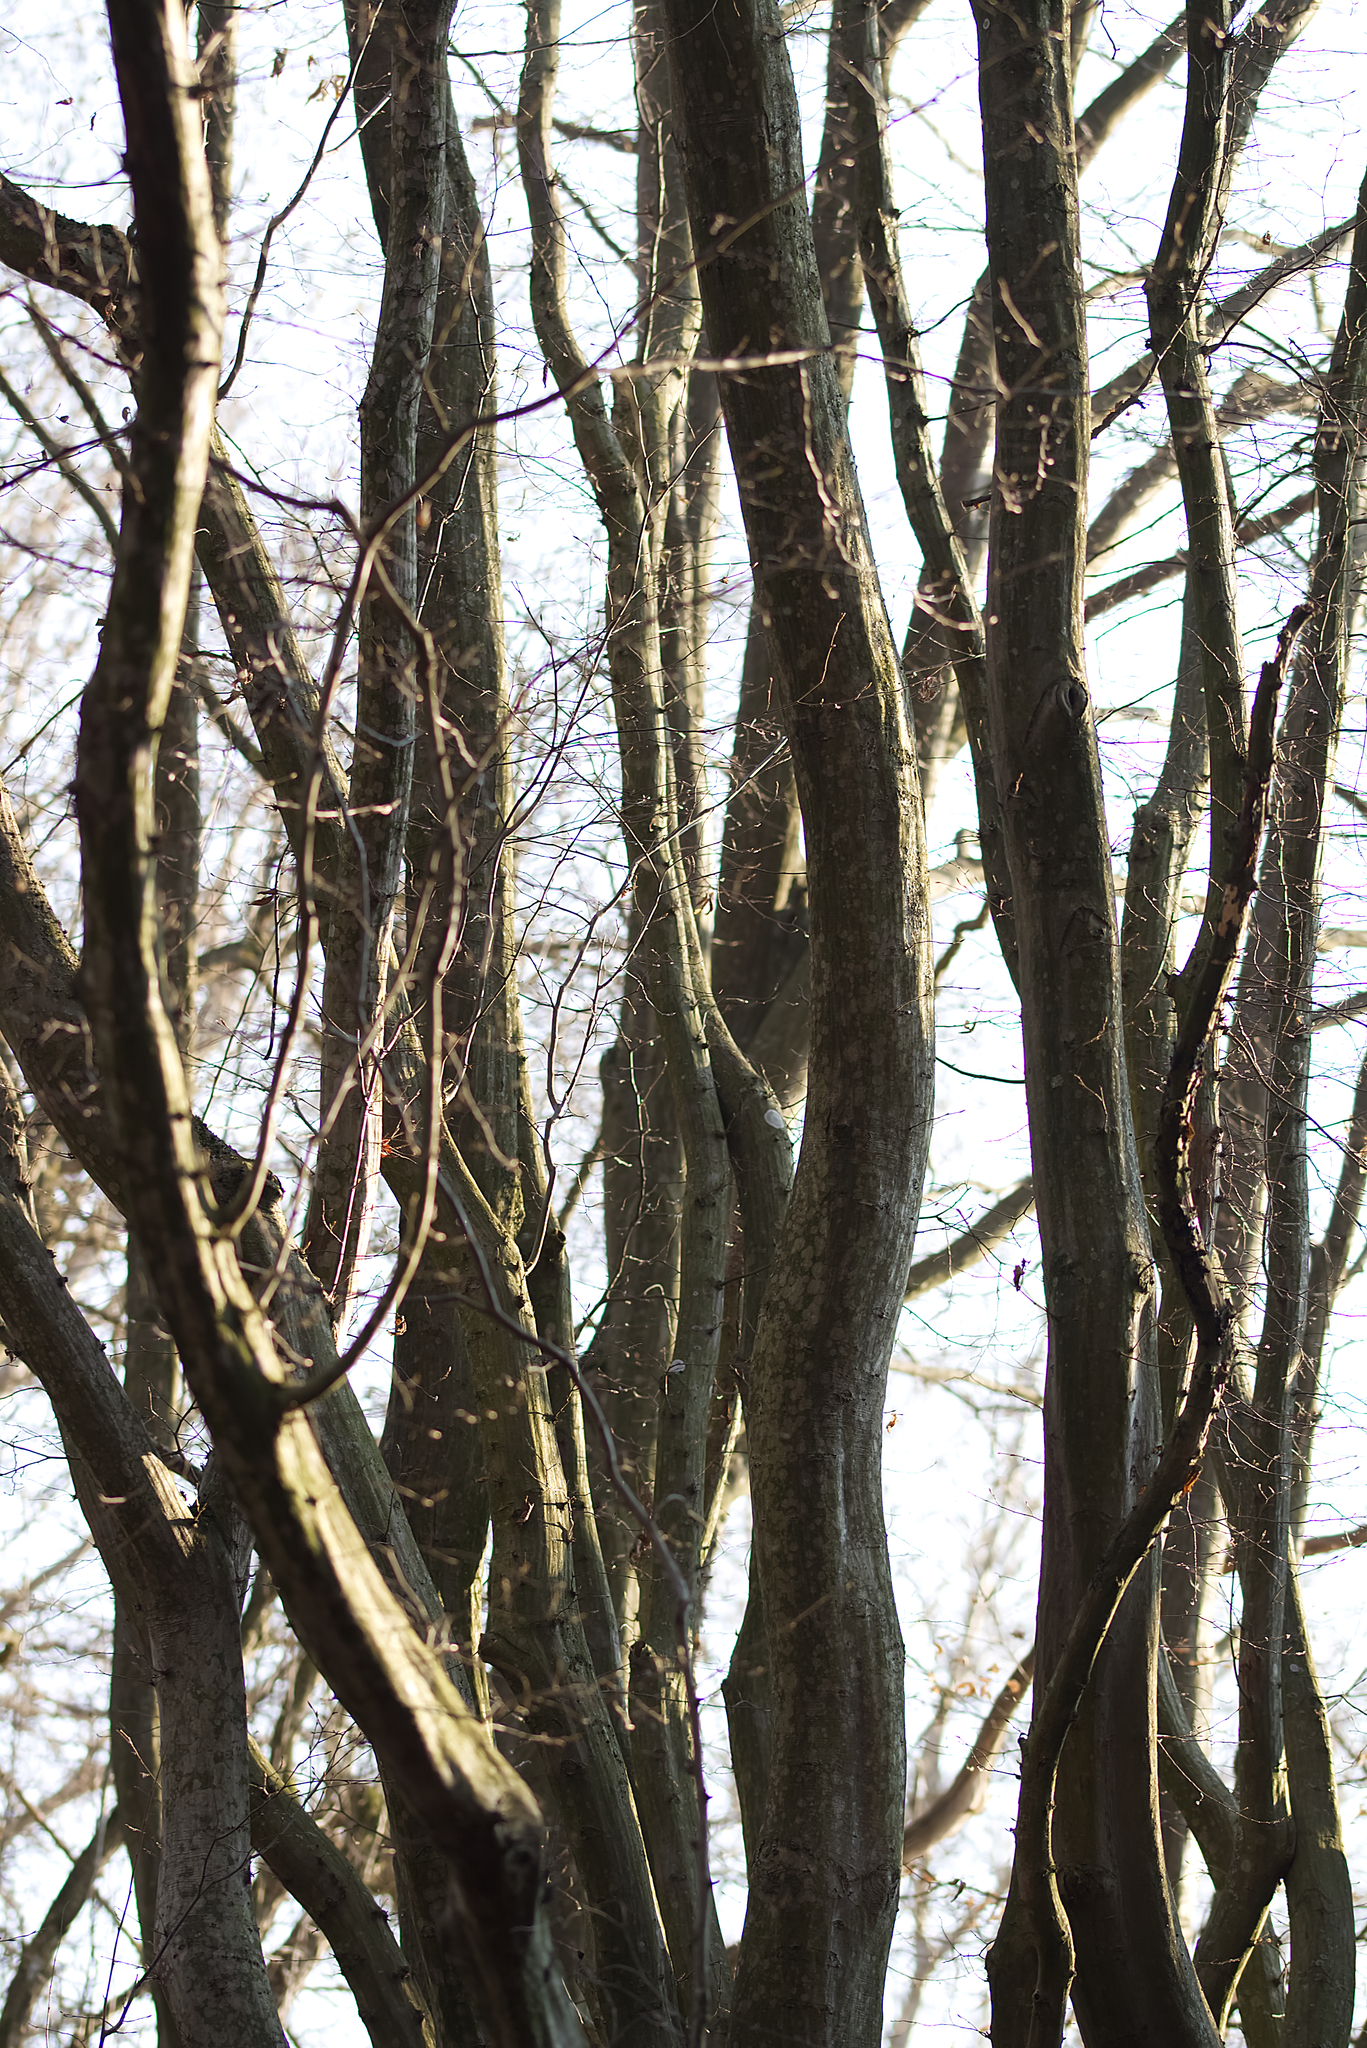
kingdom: Plantae
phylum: Tracheophyta
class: Magnoliopsida
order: Fagales
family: Betulaceae
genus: Carpinus
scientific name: Carpinus betulus
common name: Hornbeam
